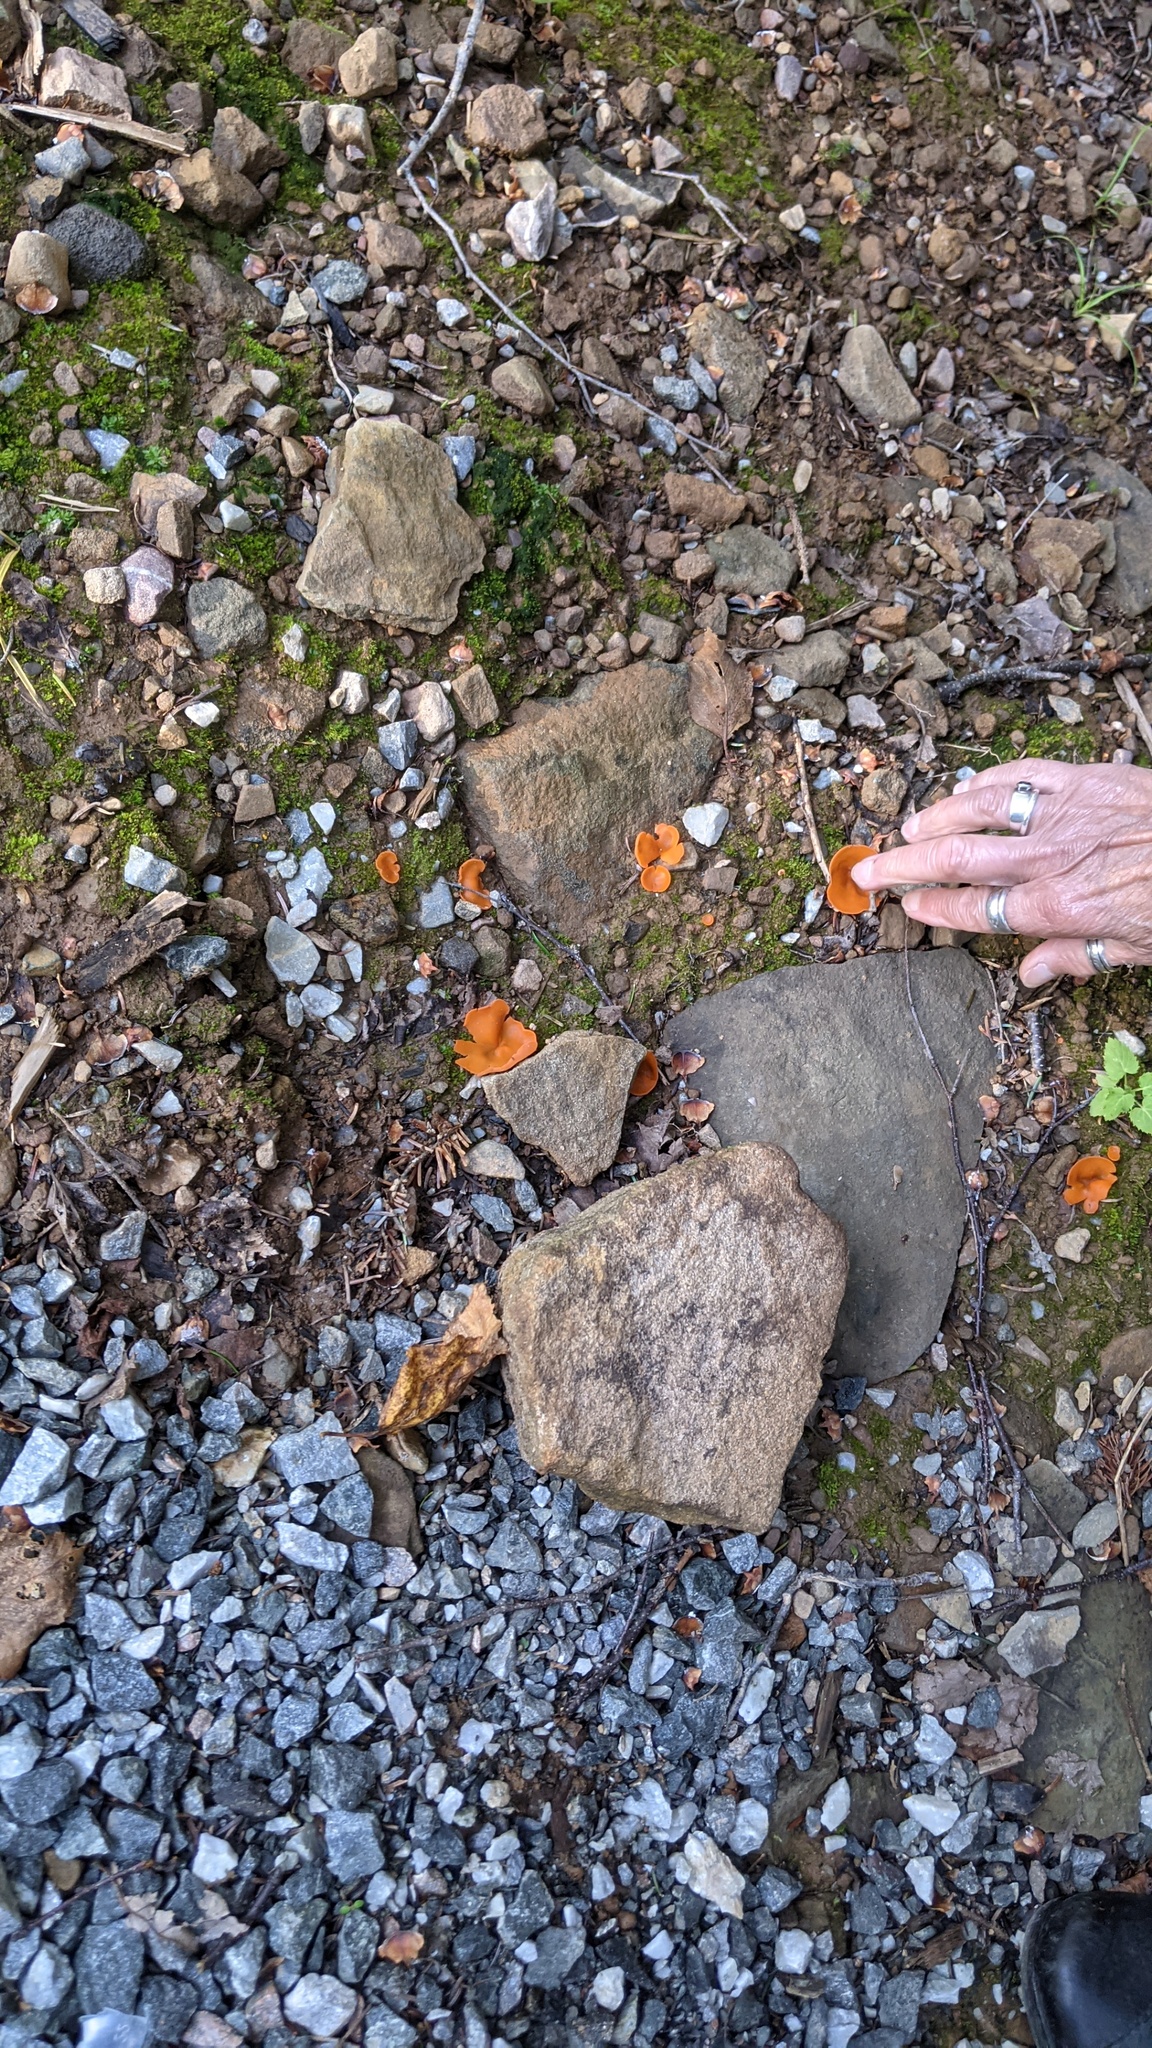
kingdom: Fungi
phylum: Ascomycota
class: Pezizomycetes
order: Pezizales
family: Pyronemataceae
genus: Aleuria
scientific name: Aleuria aurantia
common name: Orange peel fungus
